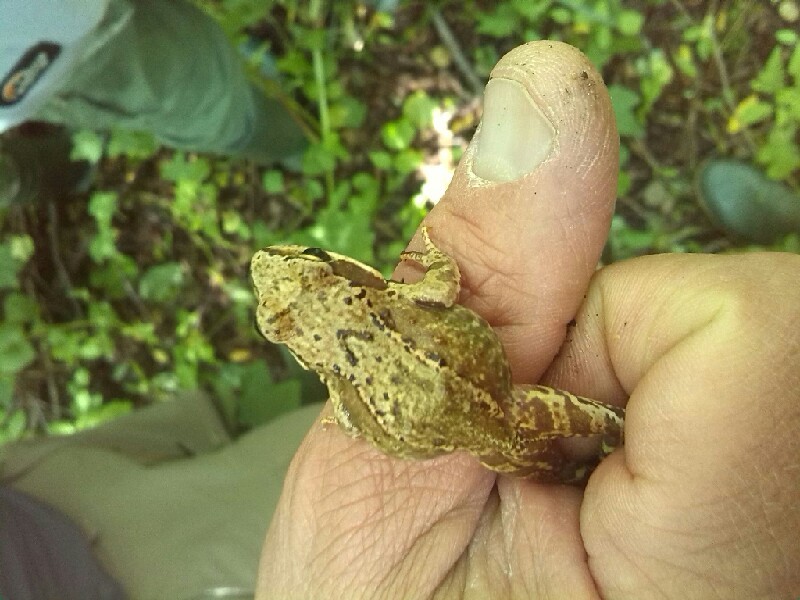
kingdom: Animalia
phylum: Chordata
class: Amphibia
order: Anura
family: Ranidae
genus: Rana
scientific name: Rana temporaria
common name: Common frog
